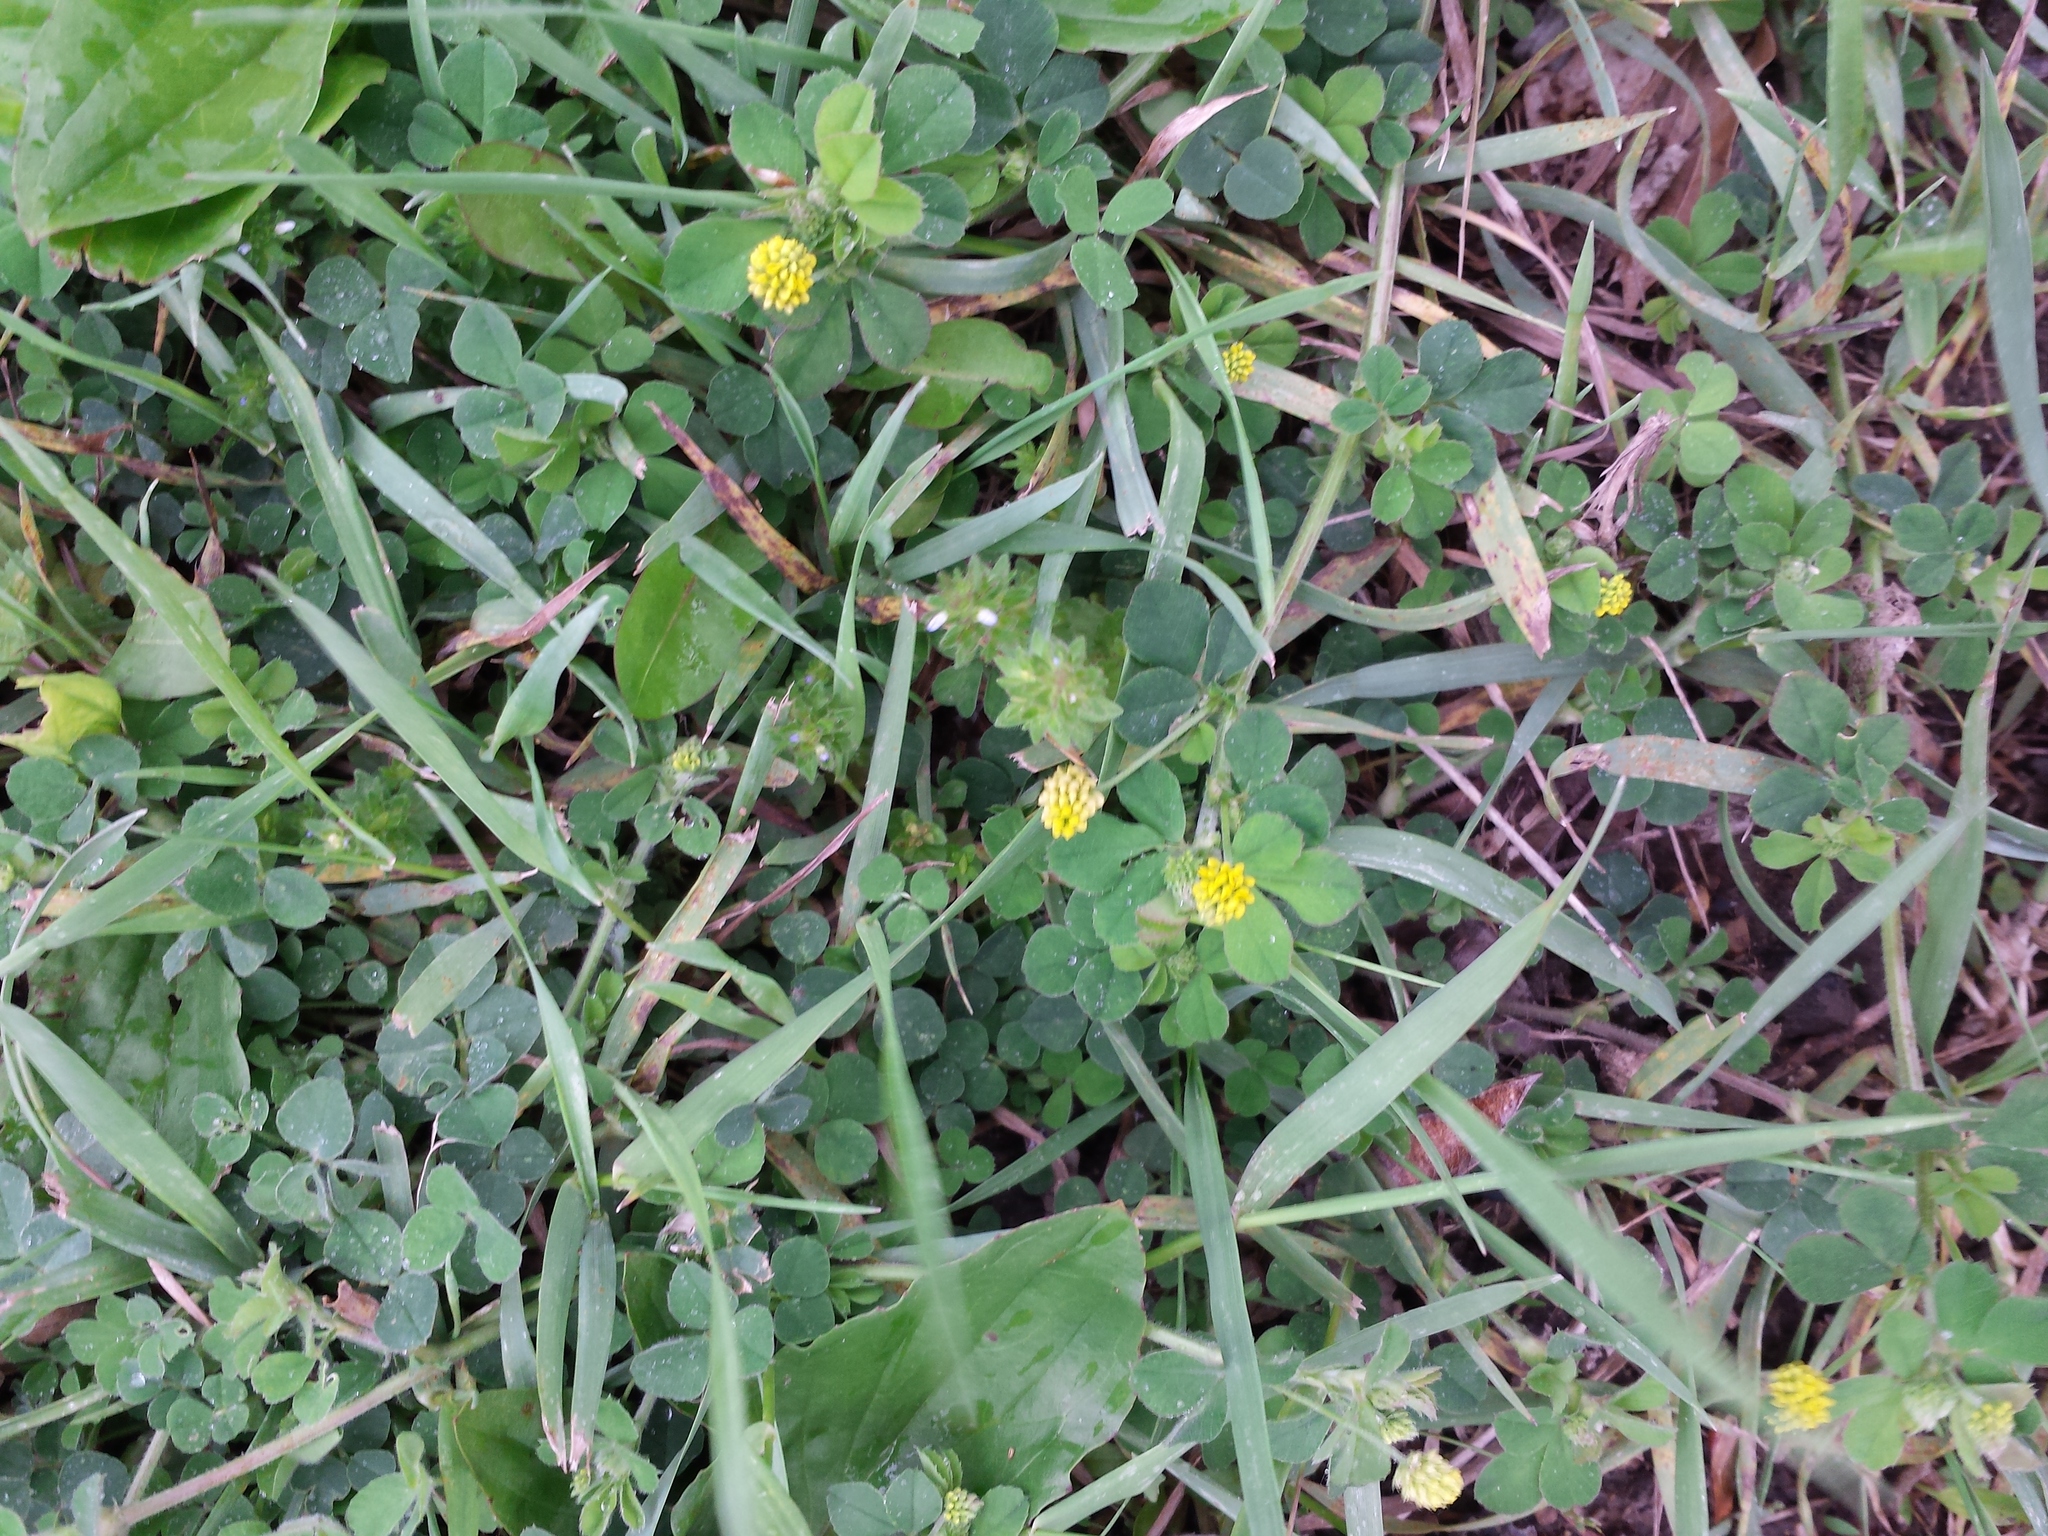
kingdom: Plantae
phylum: Tracheophyta
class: Magnoliopsida
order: Fabales
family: Fabaceae
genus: Medicago
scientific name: Medicago lupulina
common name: Black medick
